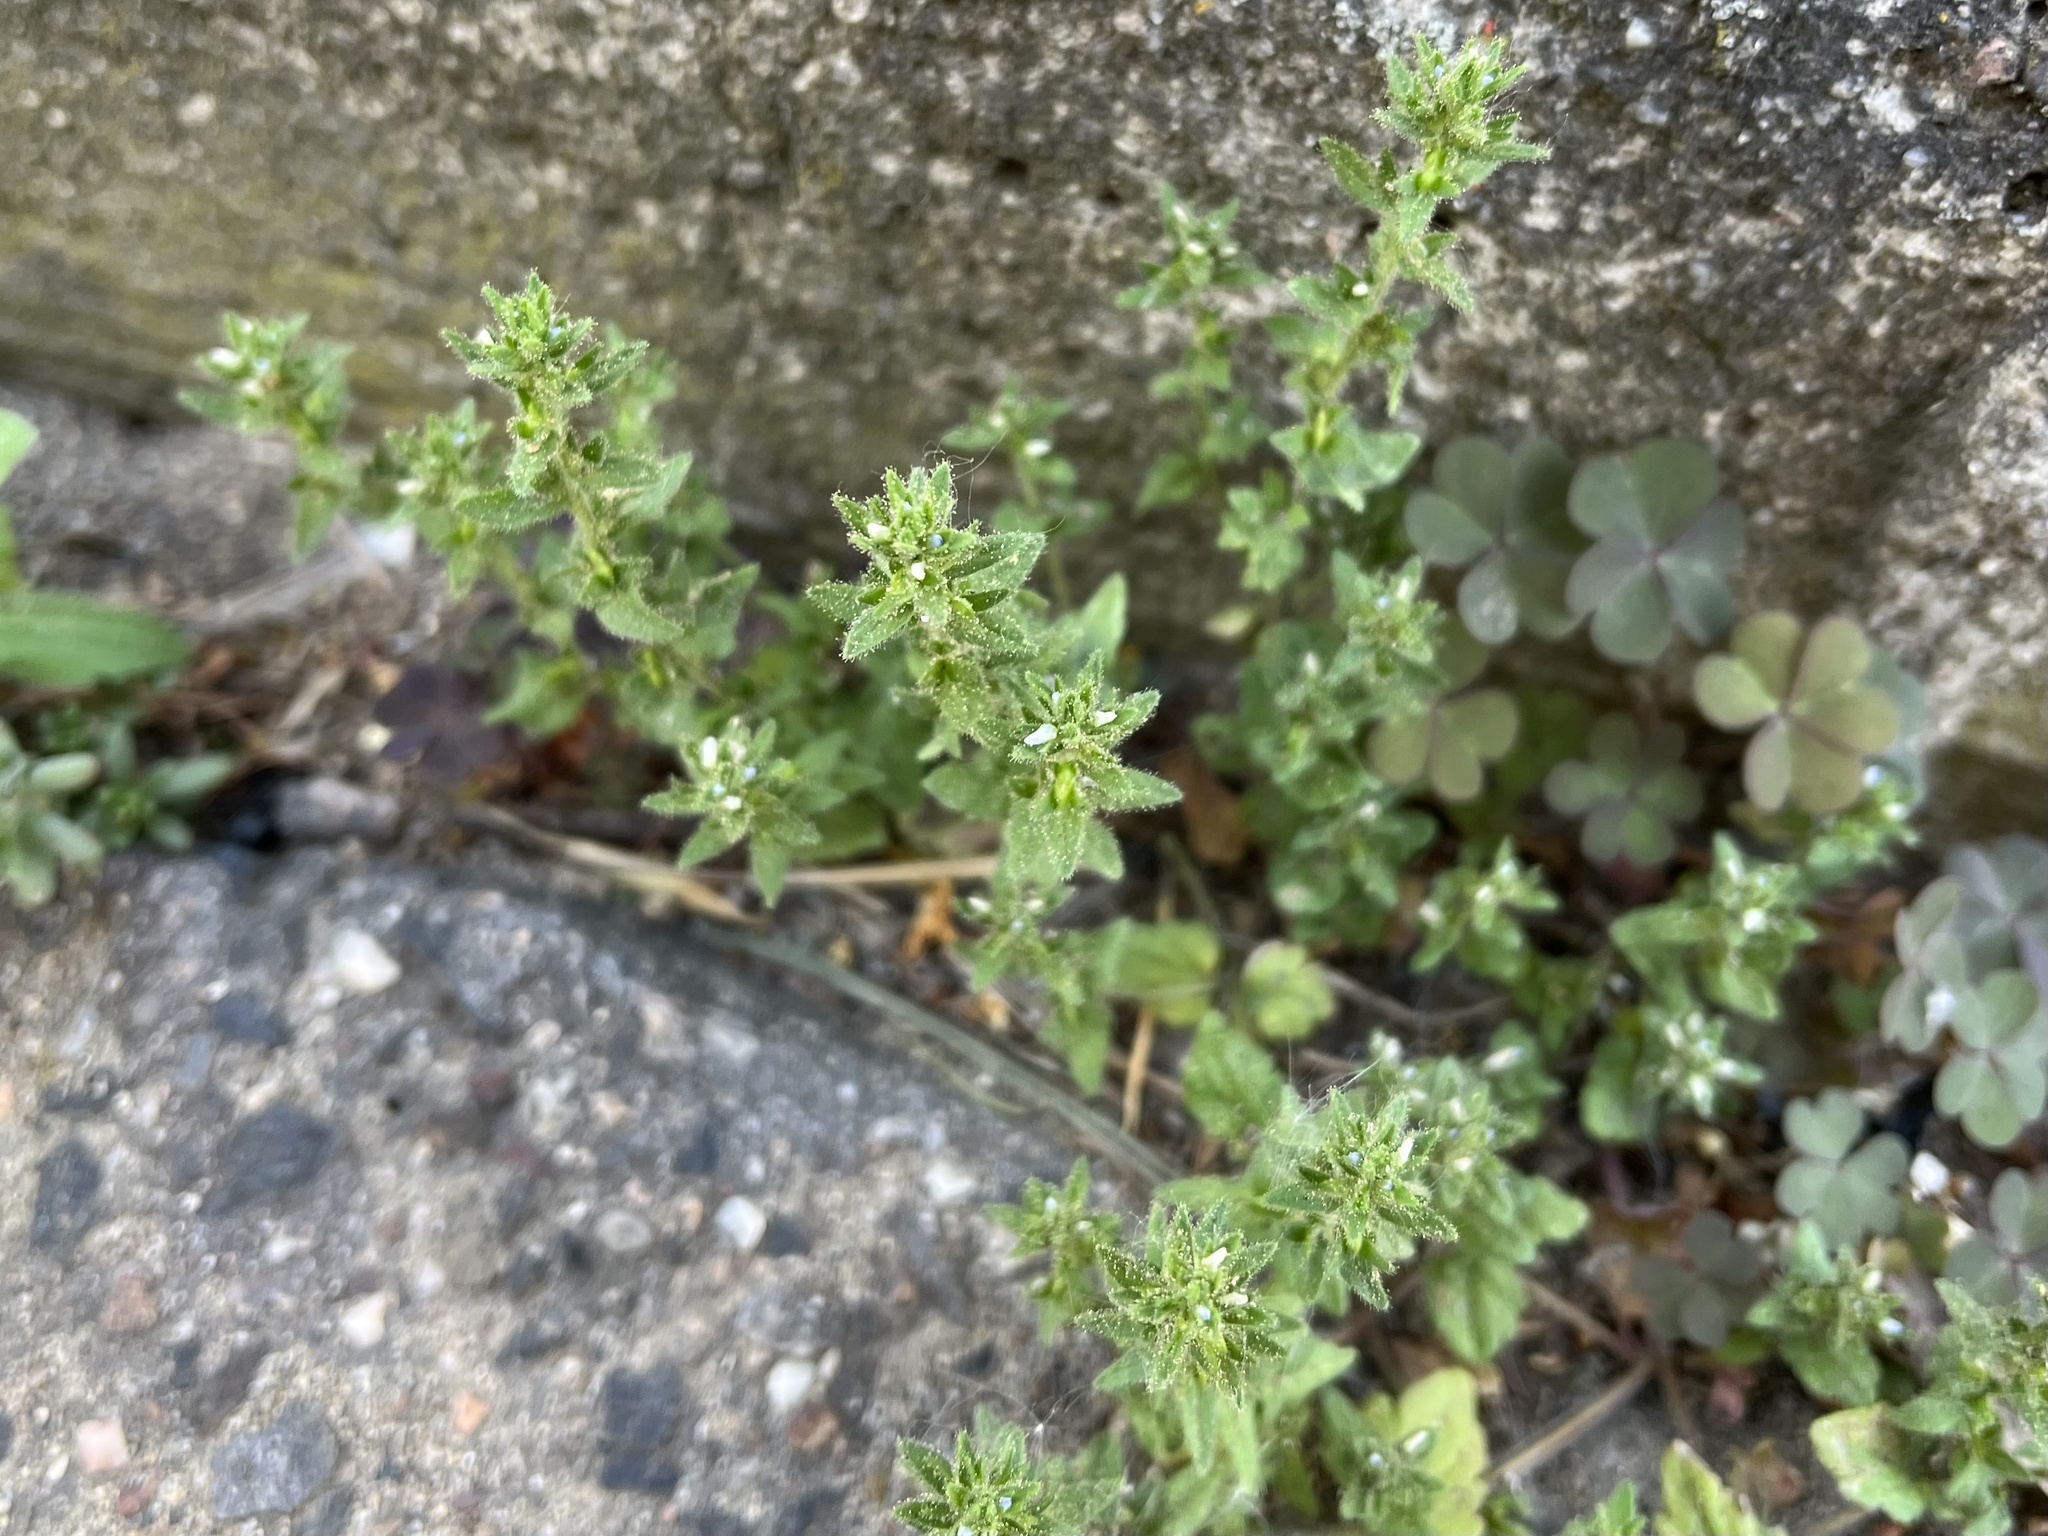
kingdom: Plantae
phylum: Tracheophyta
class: Magnoliopsida
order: Lamiales
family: Plantaginaceae
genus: Veronica
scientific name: Veronica arvensis
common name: Corn speedwell
